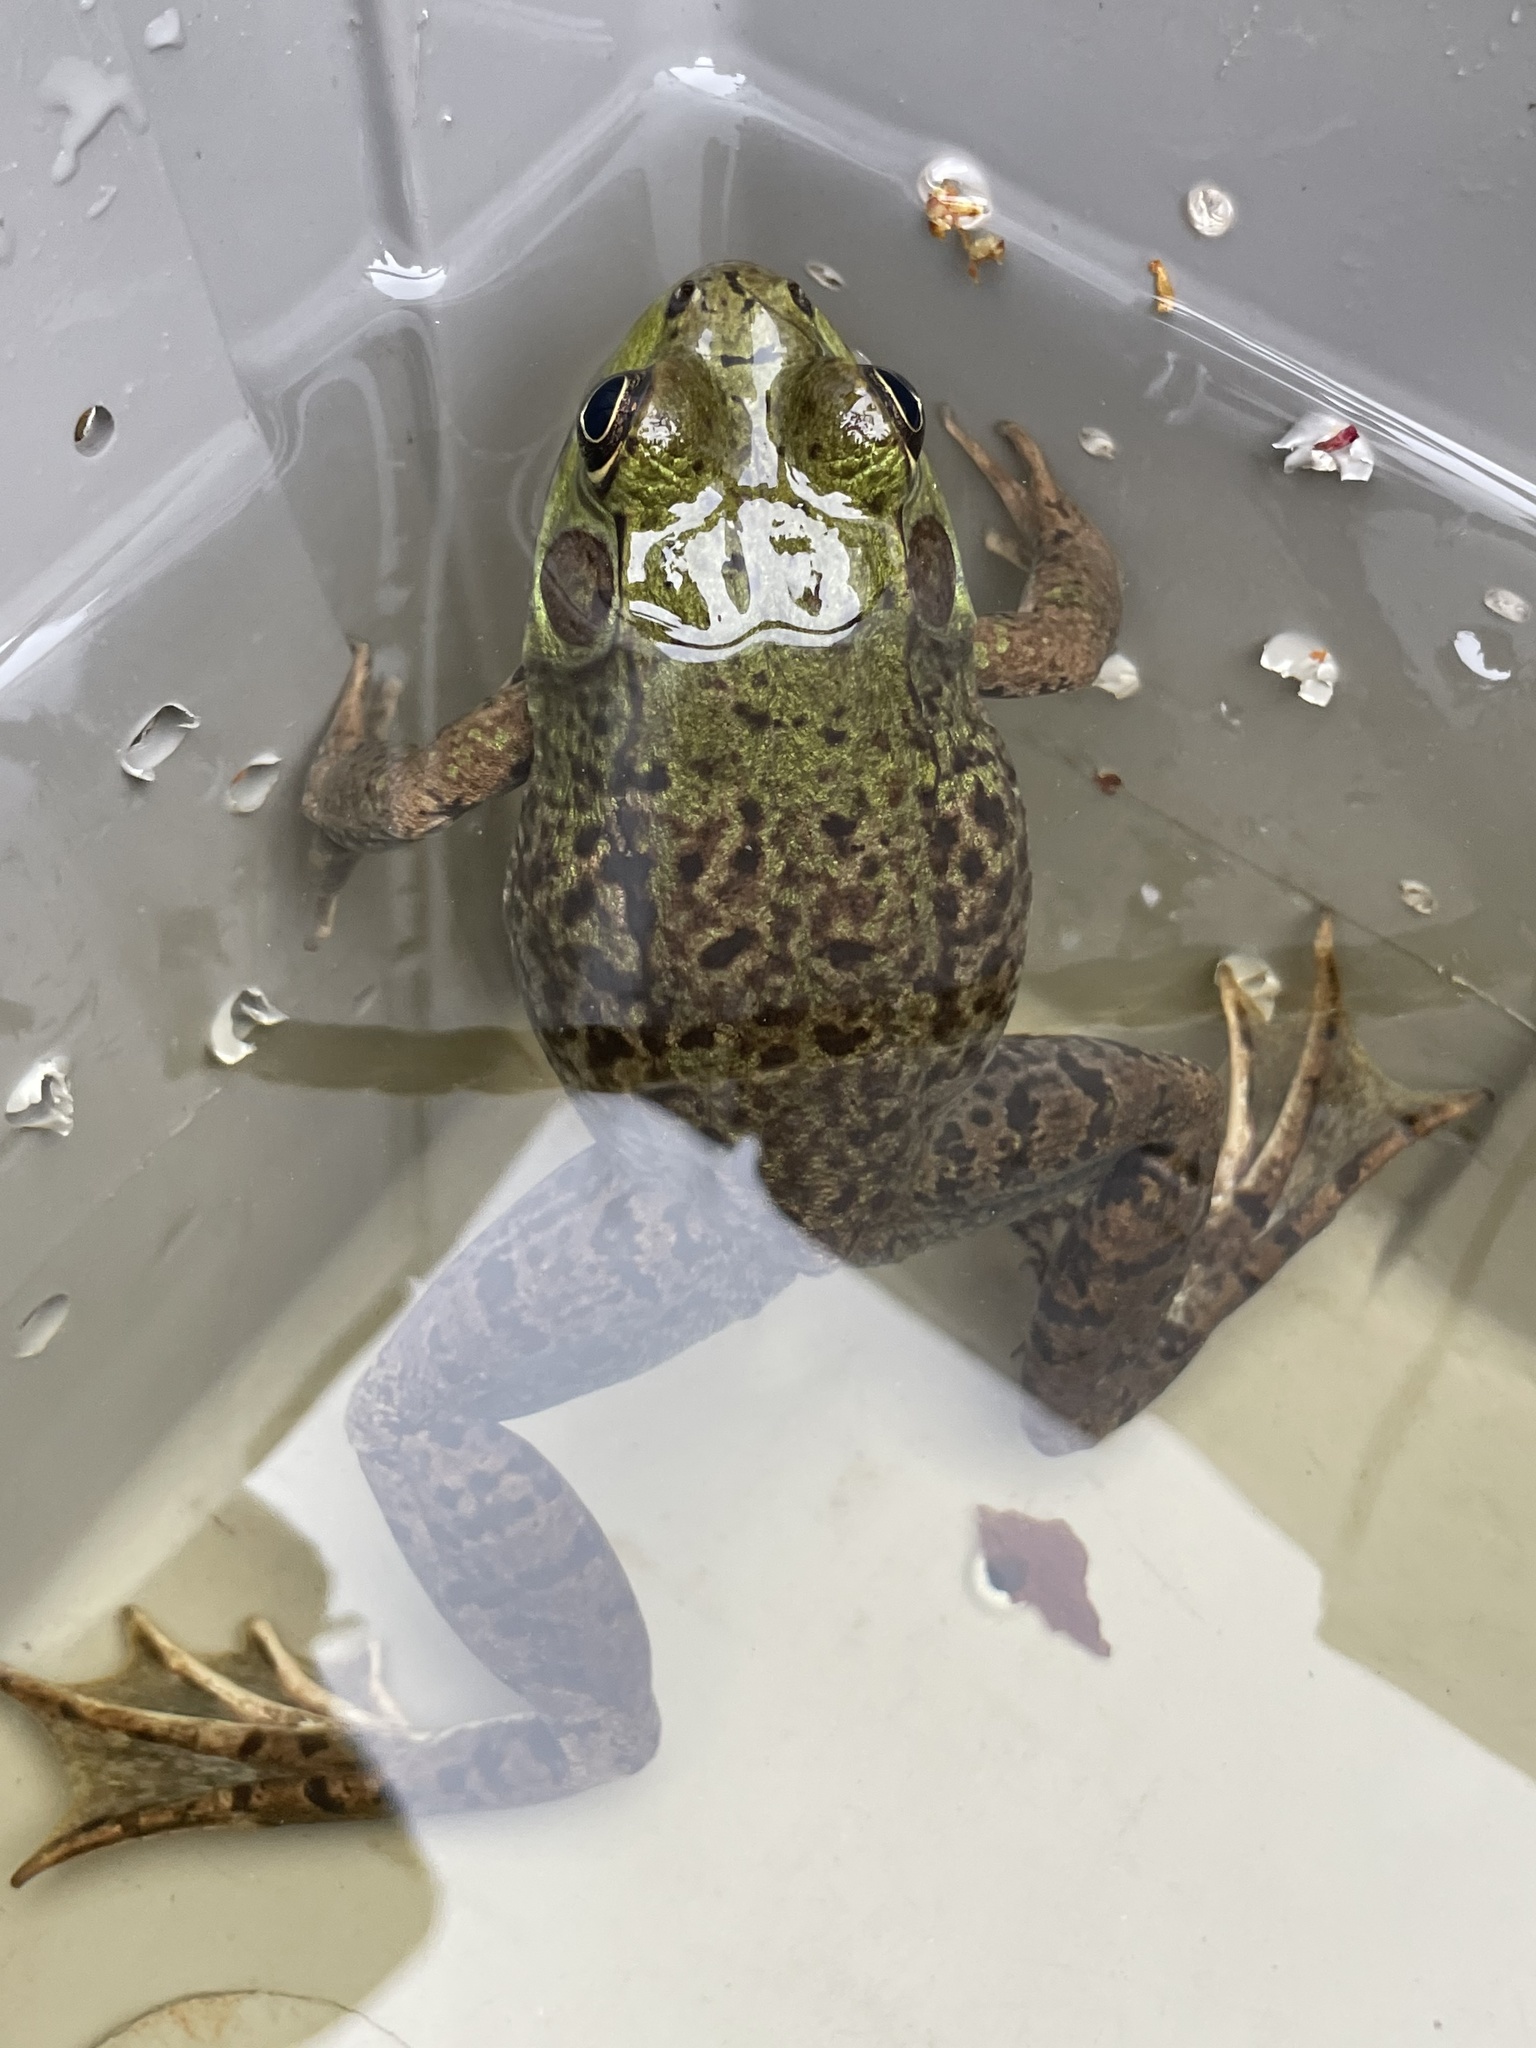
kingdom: Animalia
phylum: Chordata
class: Amphibia
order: Anura
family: Ranidae
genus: Lithobates
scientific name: Lithobates clamitans
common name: Green frog
